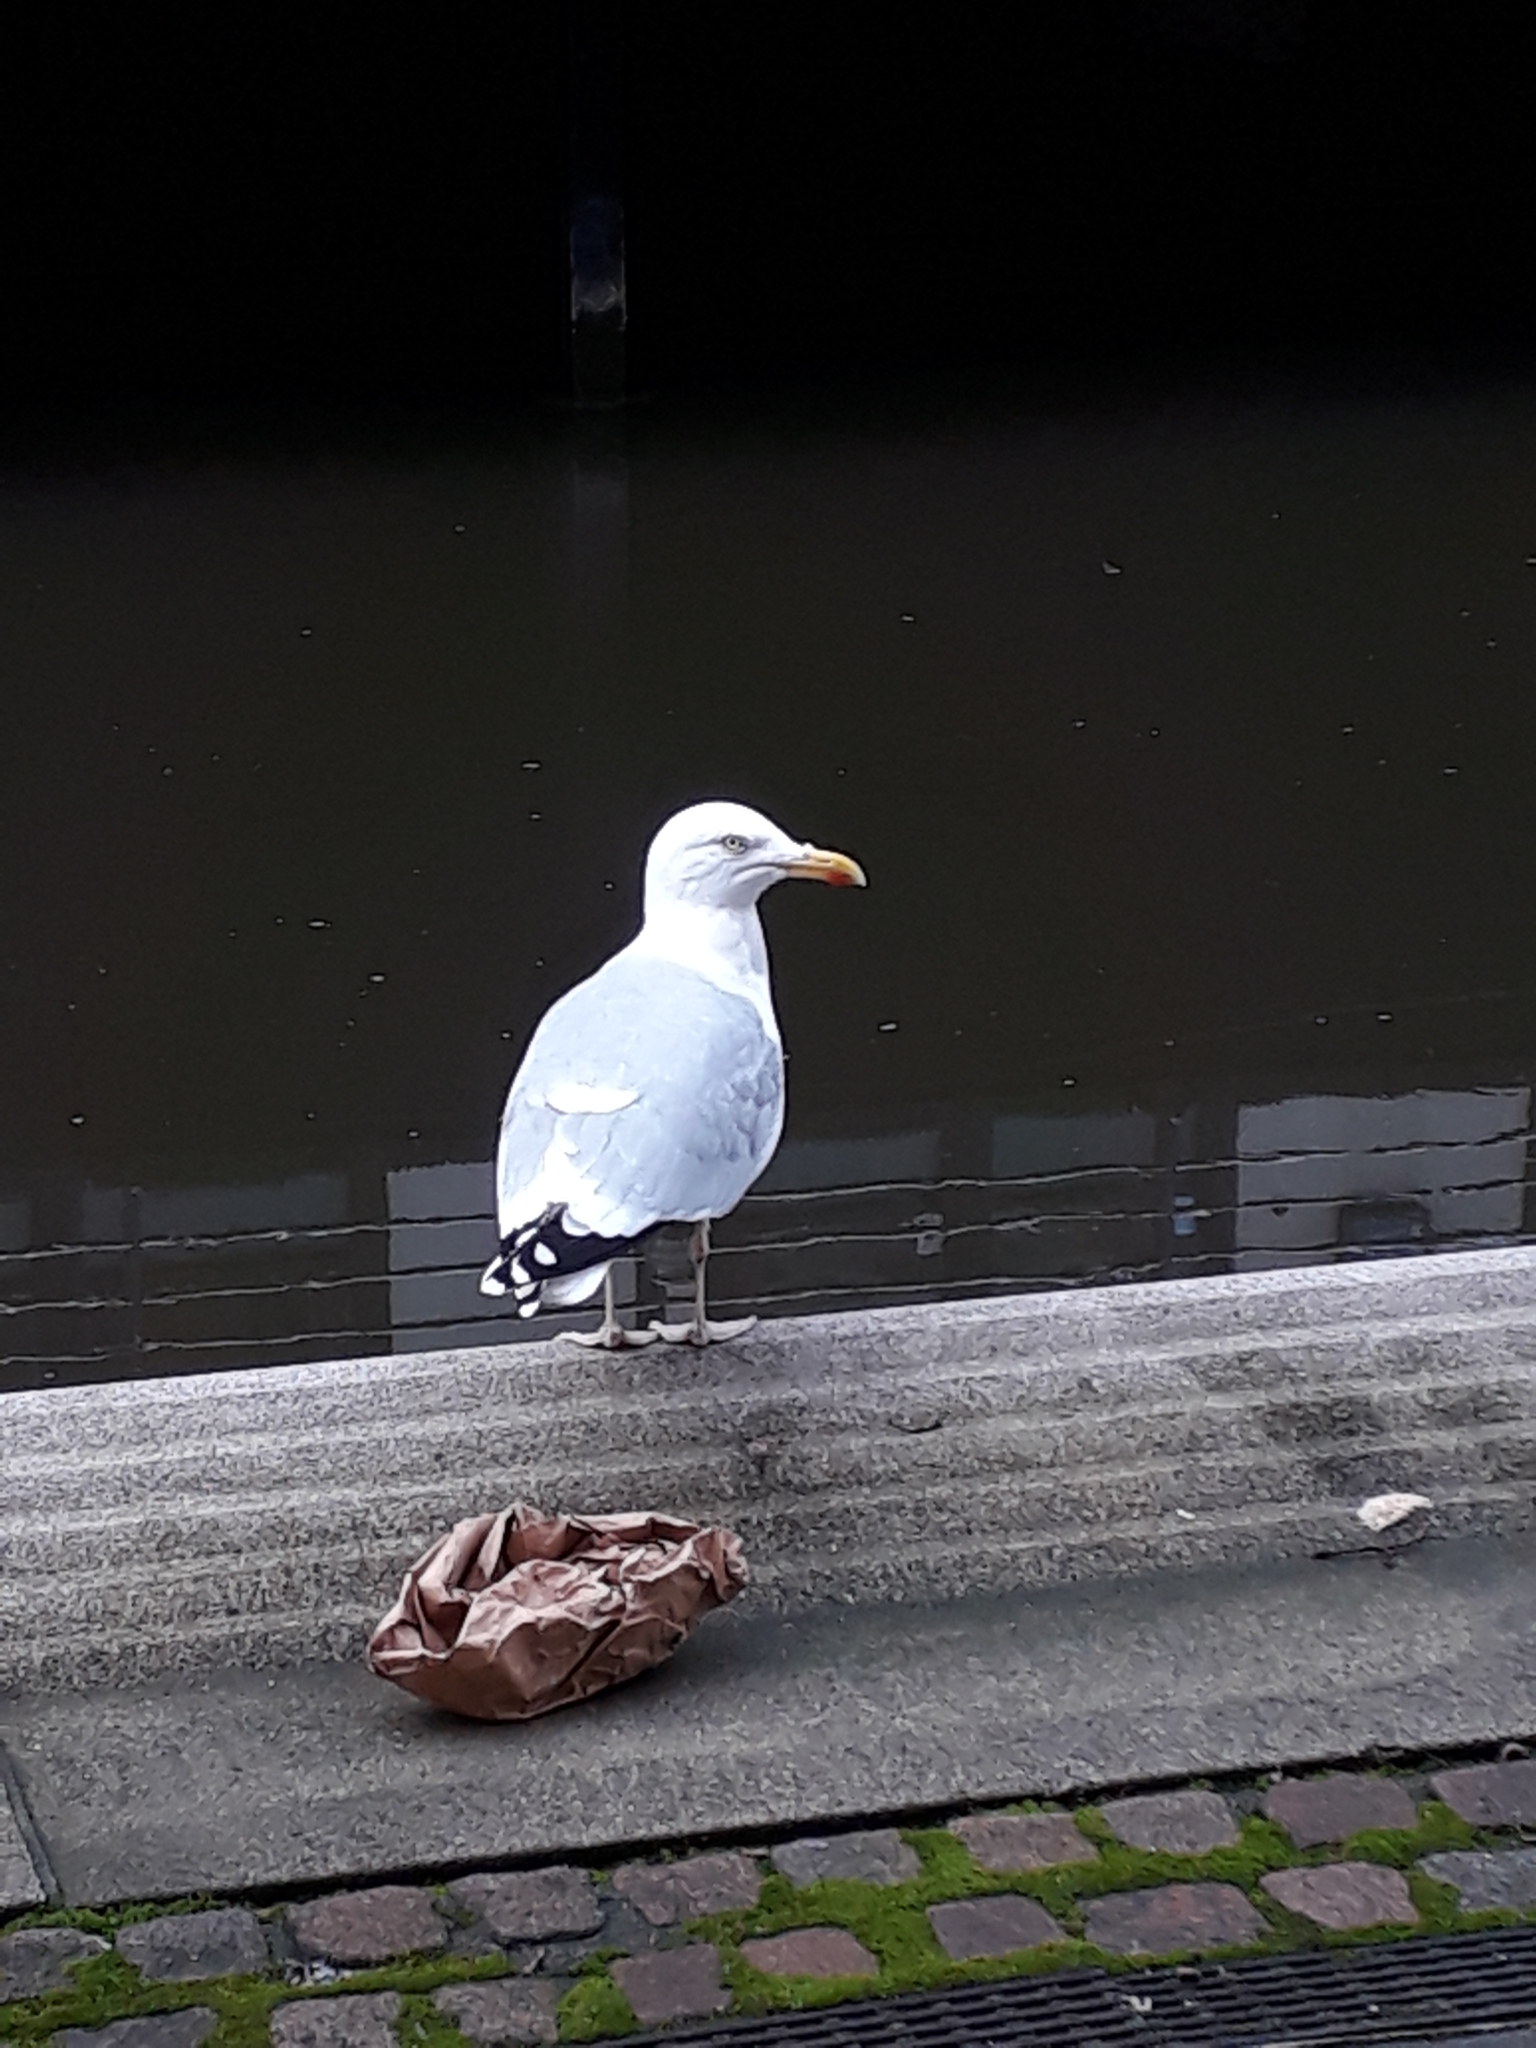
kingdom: Animalia
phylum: Chordata
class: Aves
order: Charadriiformes
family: Laridae
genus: Larus
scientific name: Larus argentatus
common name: Herring gull
